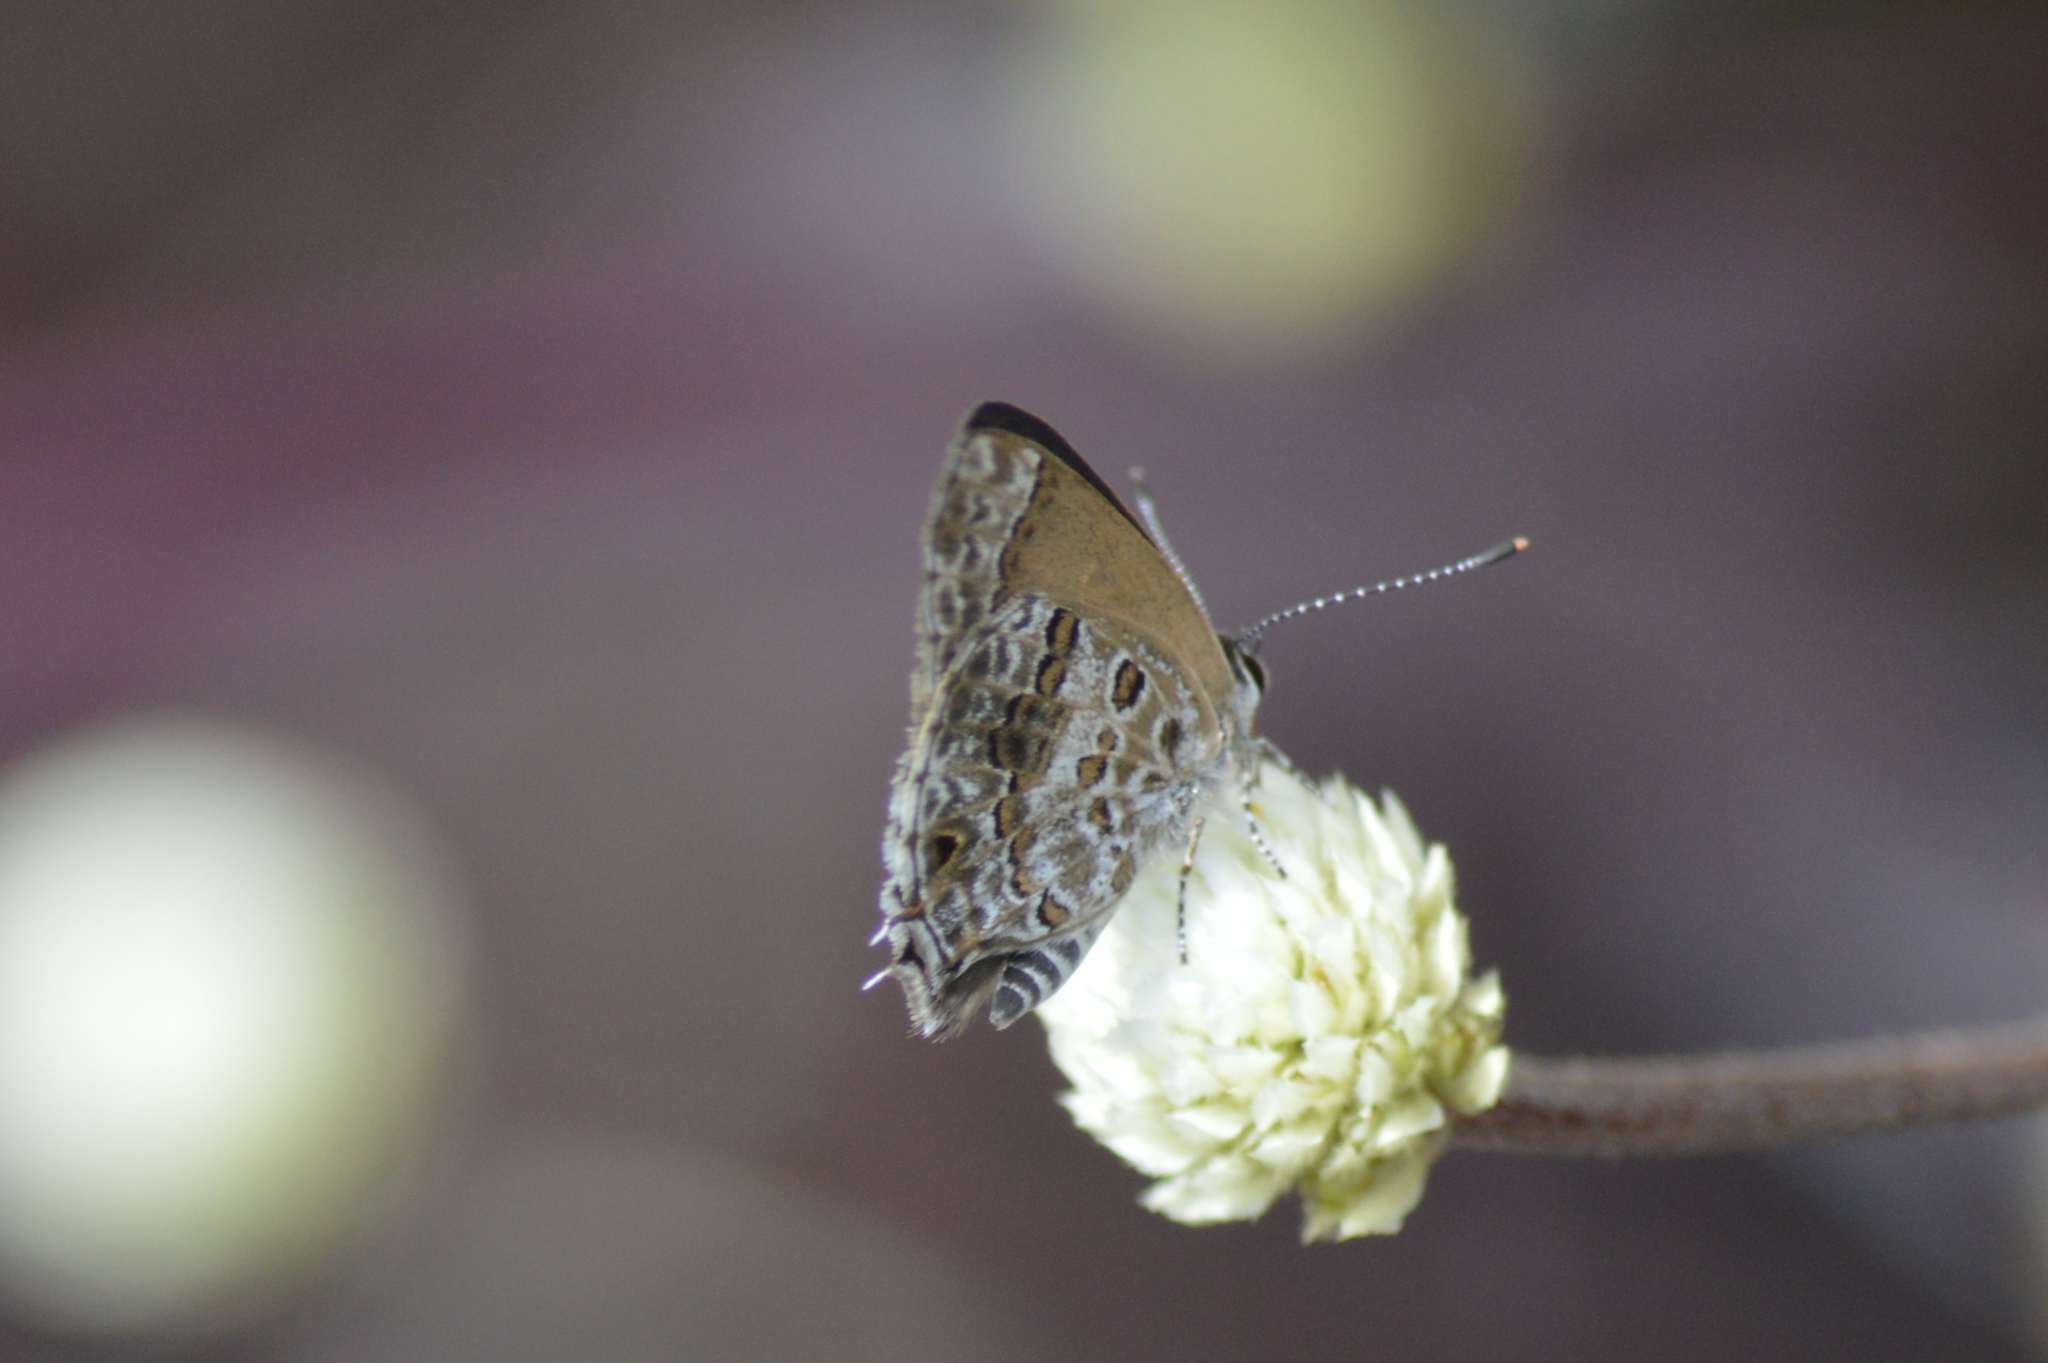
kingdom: Animalia
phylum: Arthropoda
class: Insecta
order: Lepidoptera
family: Lycaenidae
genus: Strymon
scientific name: Strymon astiocha
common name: Gray-spotted scrub-hairstreak
